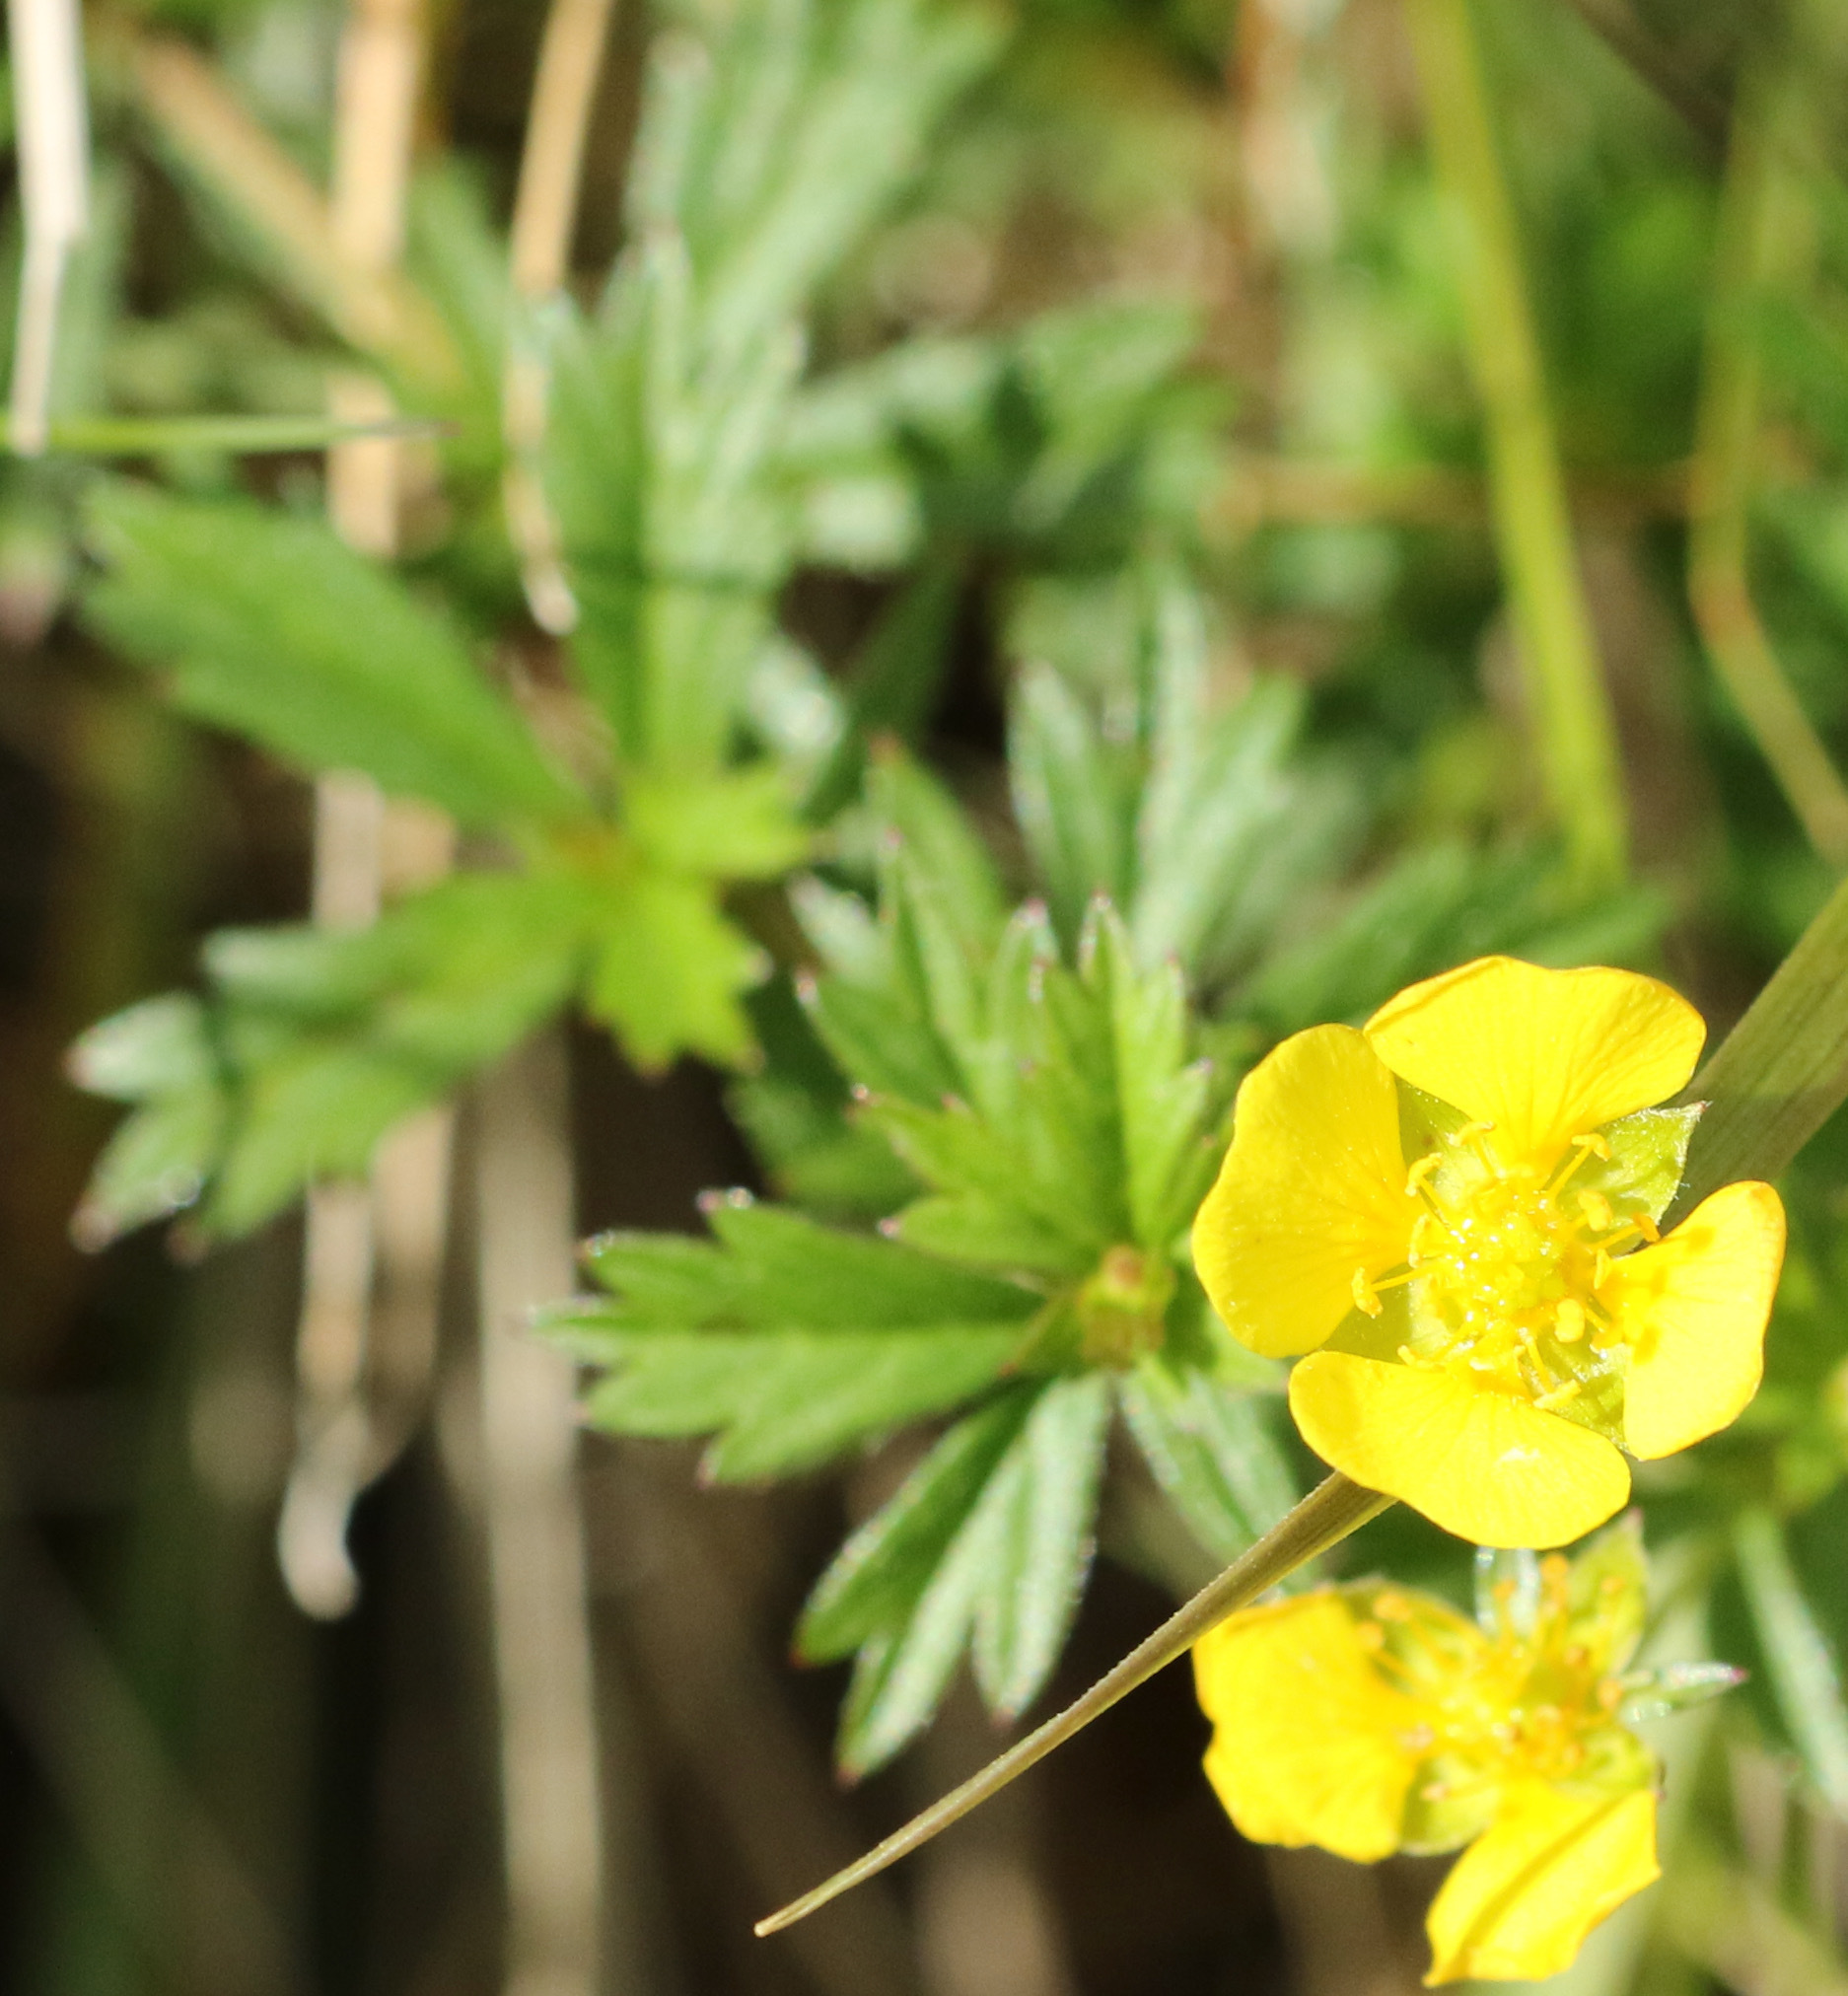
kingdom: Plantae
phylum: Tracheophyta
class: Magnoliopsida
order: Rosales
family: Rosaceae
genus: Potentilla
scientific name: Potentilla erecta
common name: Tormentil
